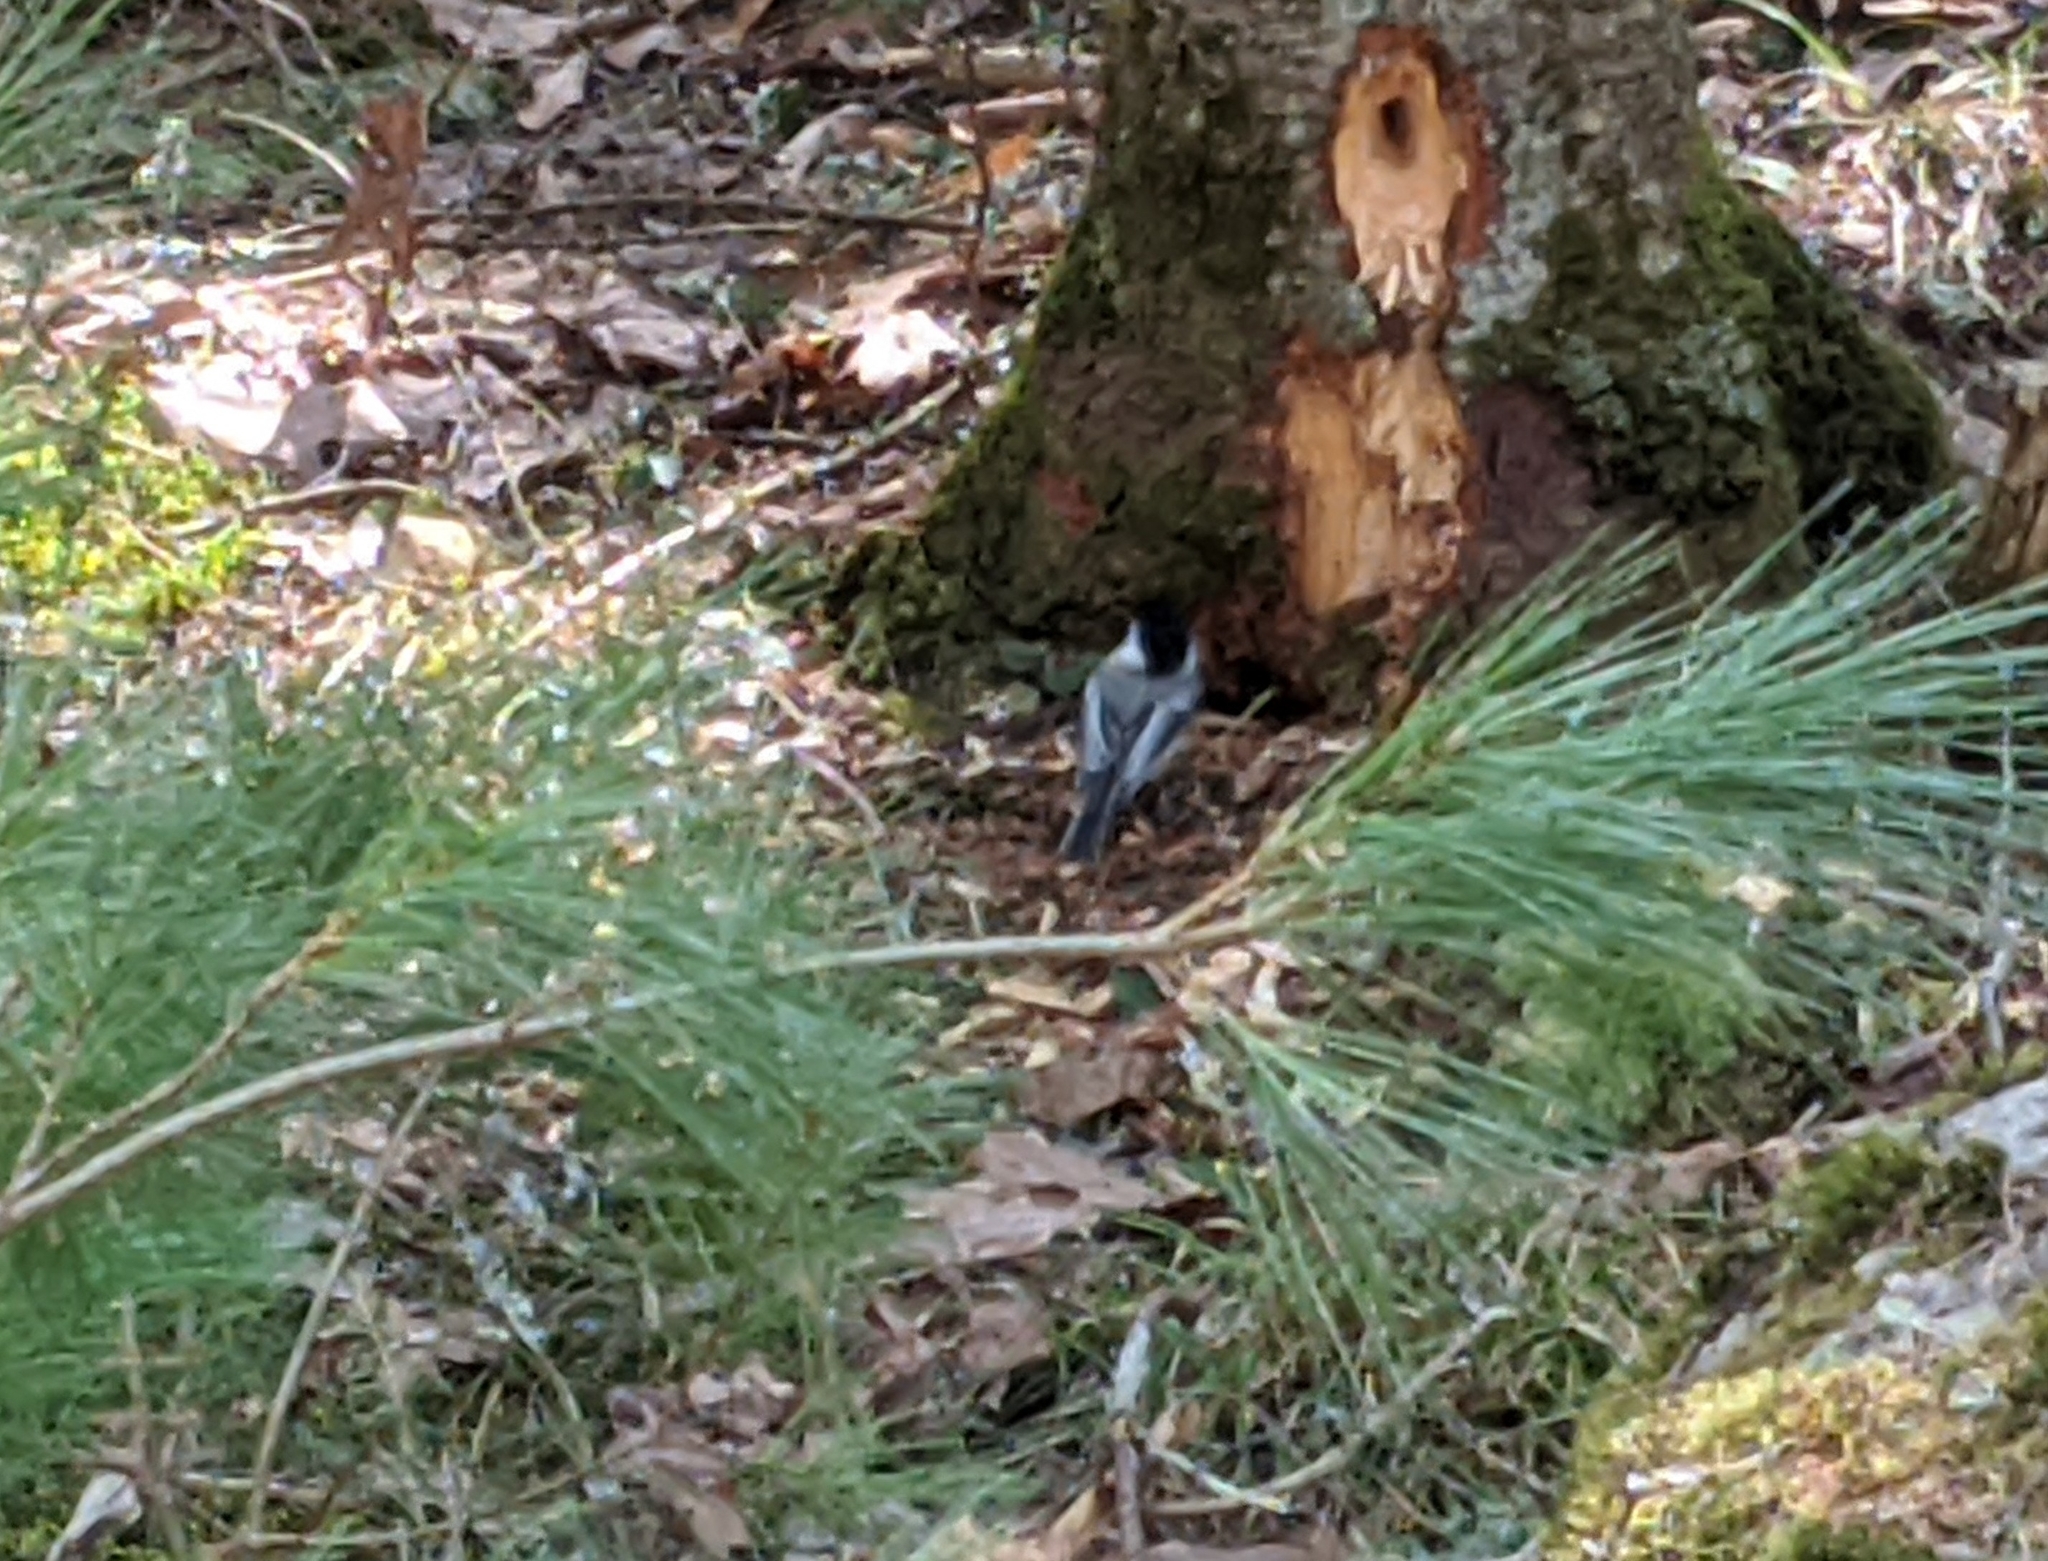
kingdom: Animalia
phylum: Chordata
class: Aves
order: Passeriformes
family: Paridae
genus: Poecile
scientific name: Poecile atricapillus
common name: Black-capped chickadee
